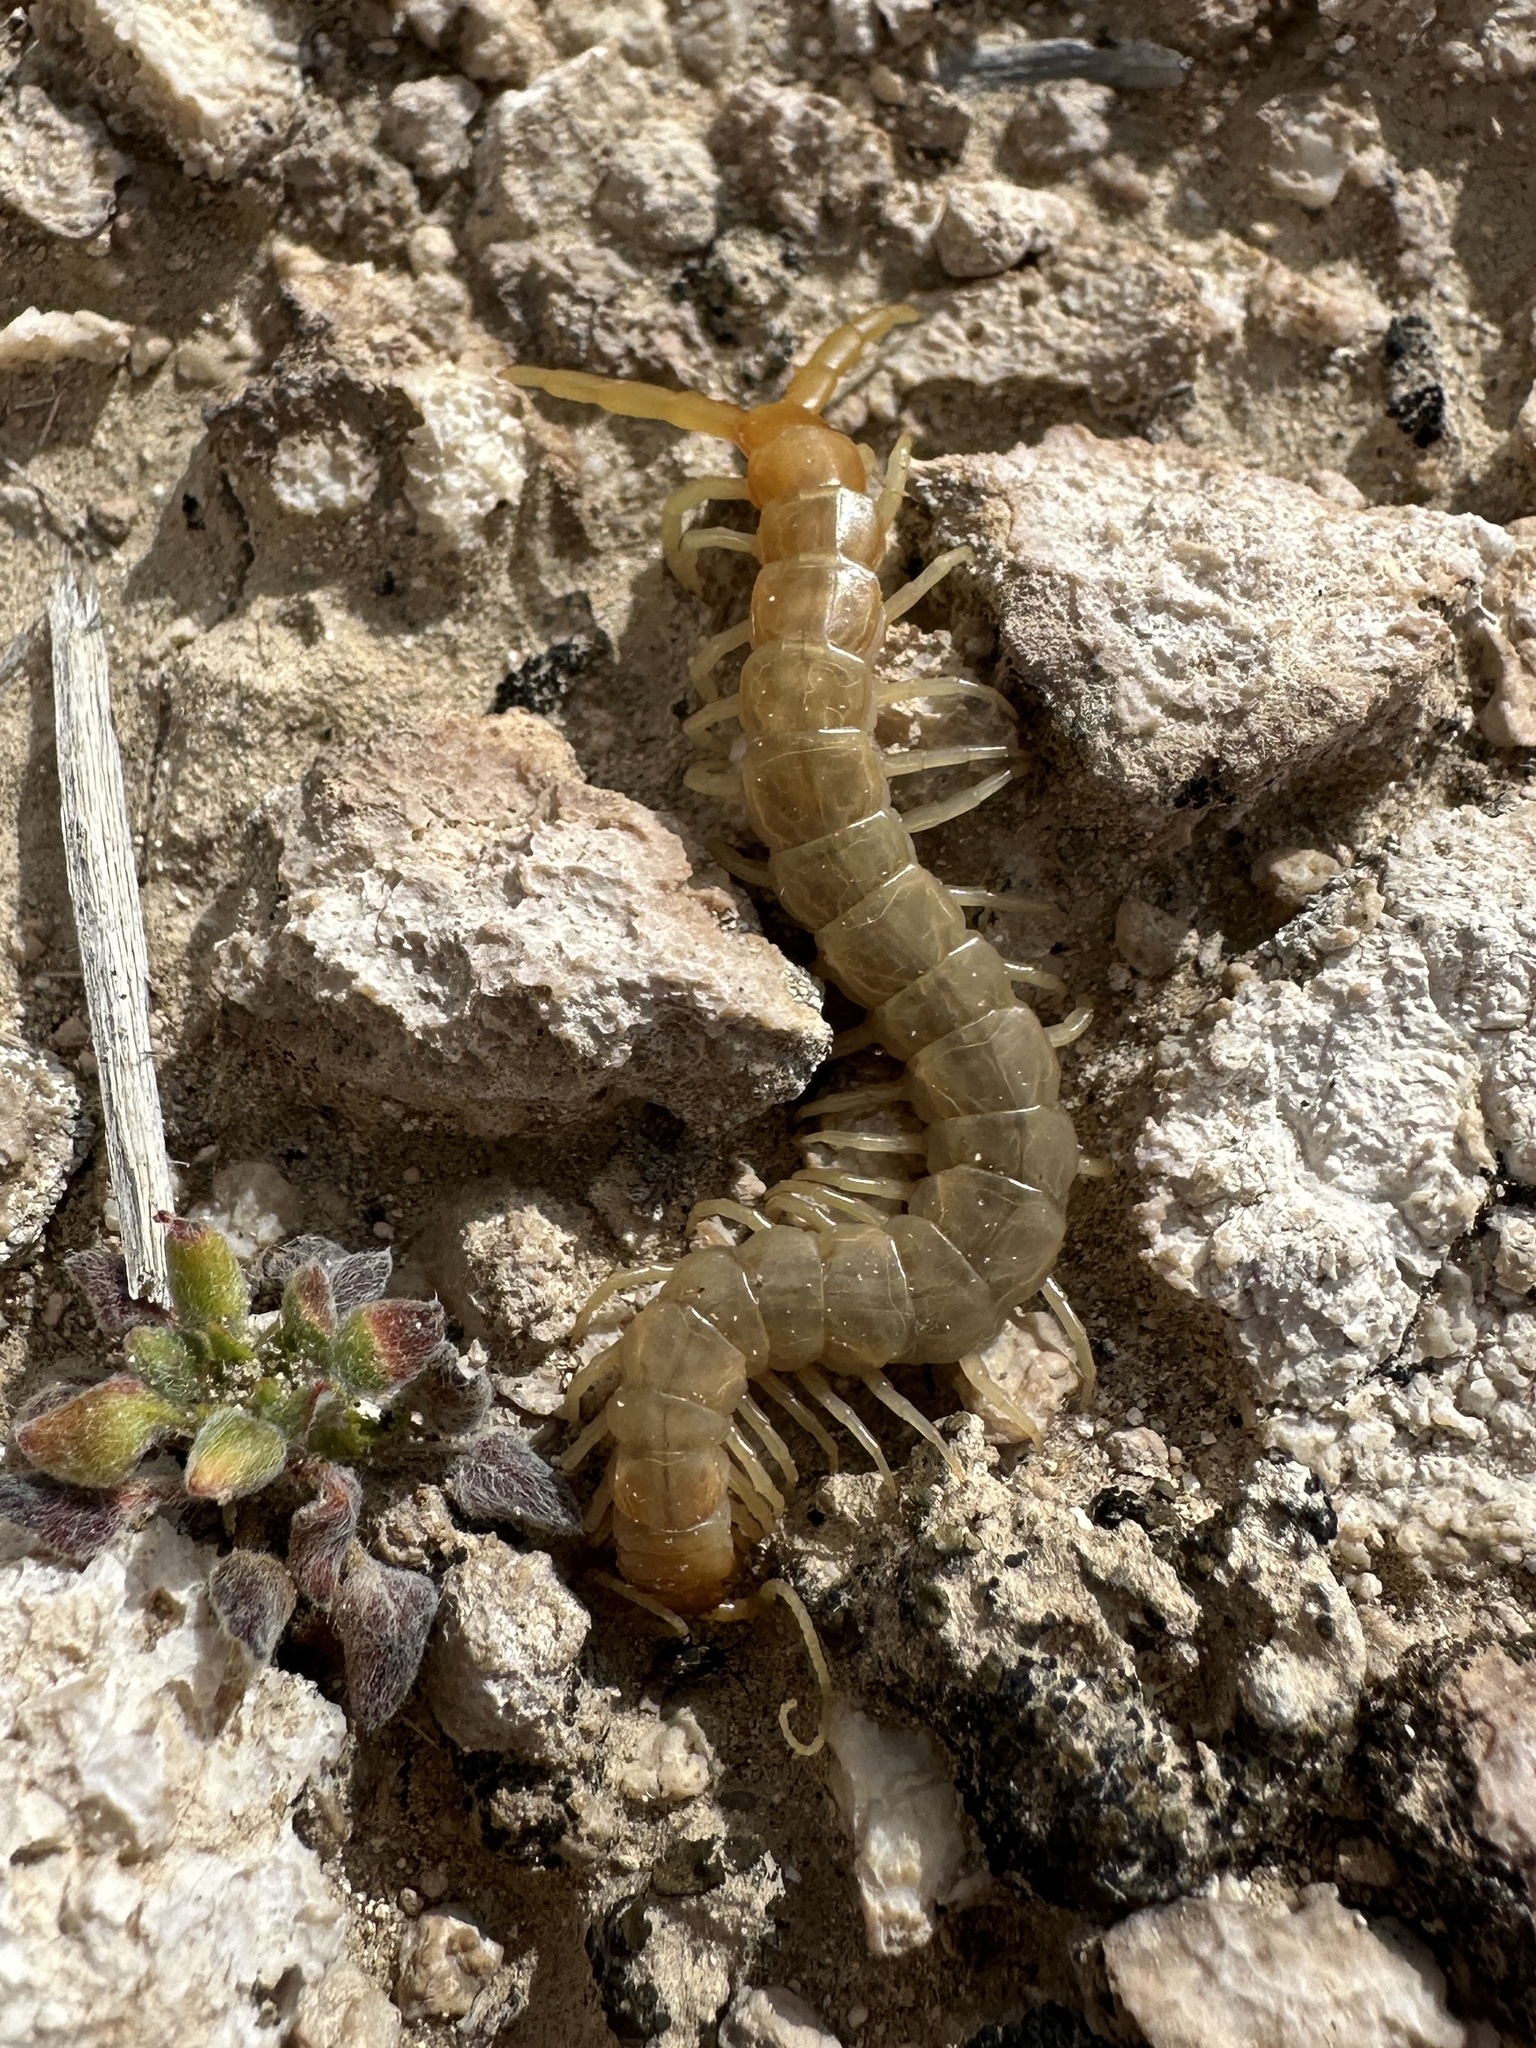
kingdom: Animalia
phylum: Arthropoda
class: Chilopoda
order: Scolopendromorpha
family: Scolopendridae
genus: Scolopendra
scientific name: Scolopendra polymorpha
